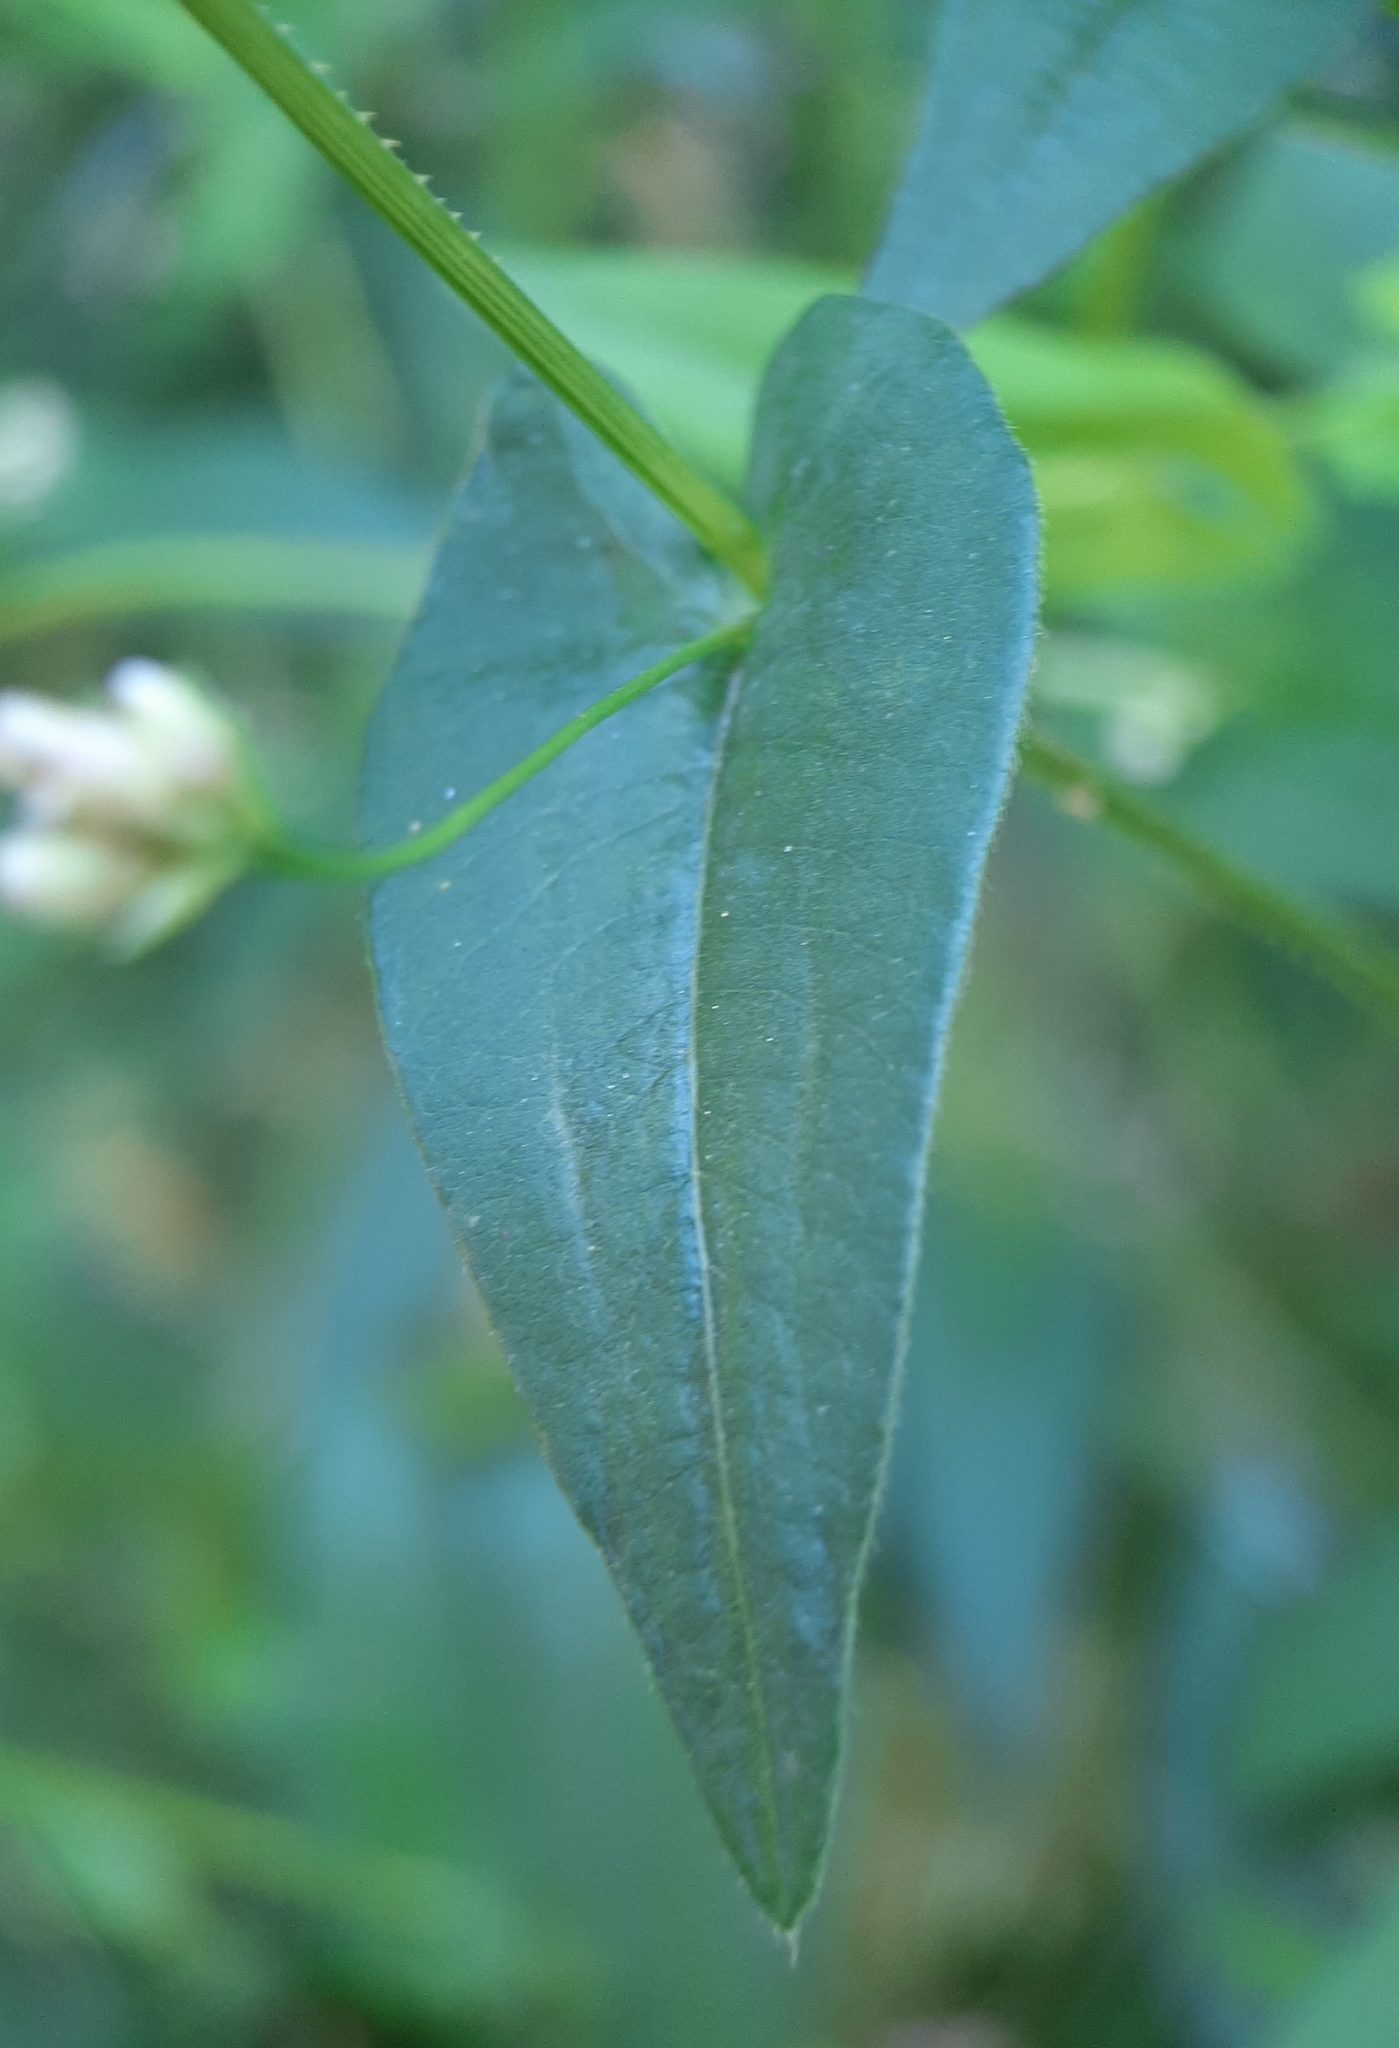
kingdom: Plantae
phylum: Tracheophyta
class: Magnoliopsida
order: Caryophyllales
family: Polygonaceae
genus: Persicaria
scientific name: Persicaria sagittata
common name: American tearthumb
